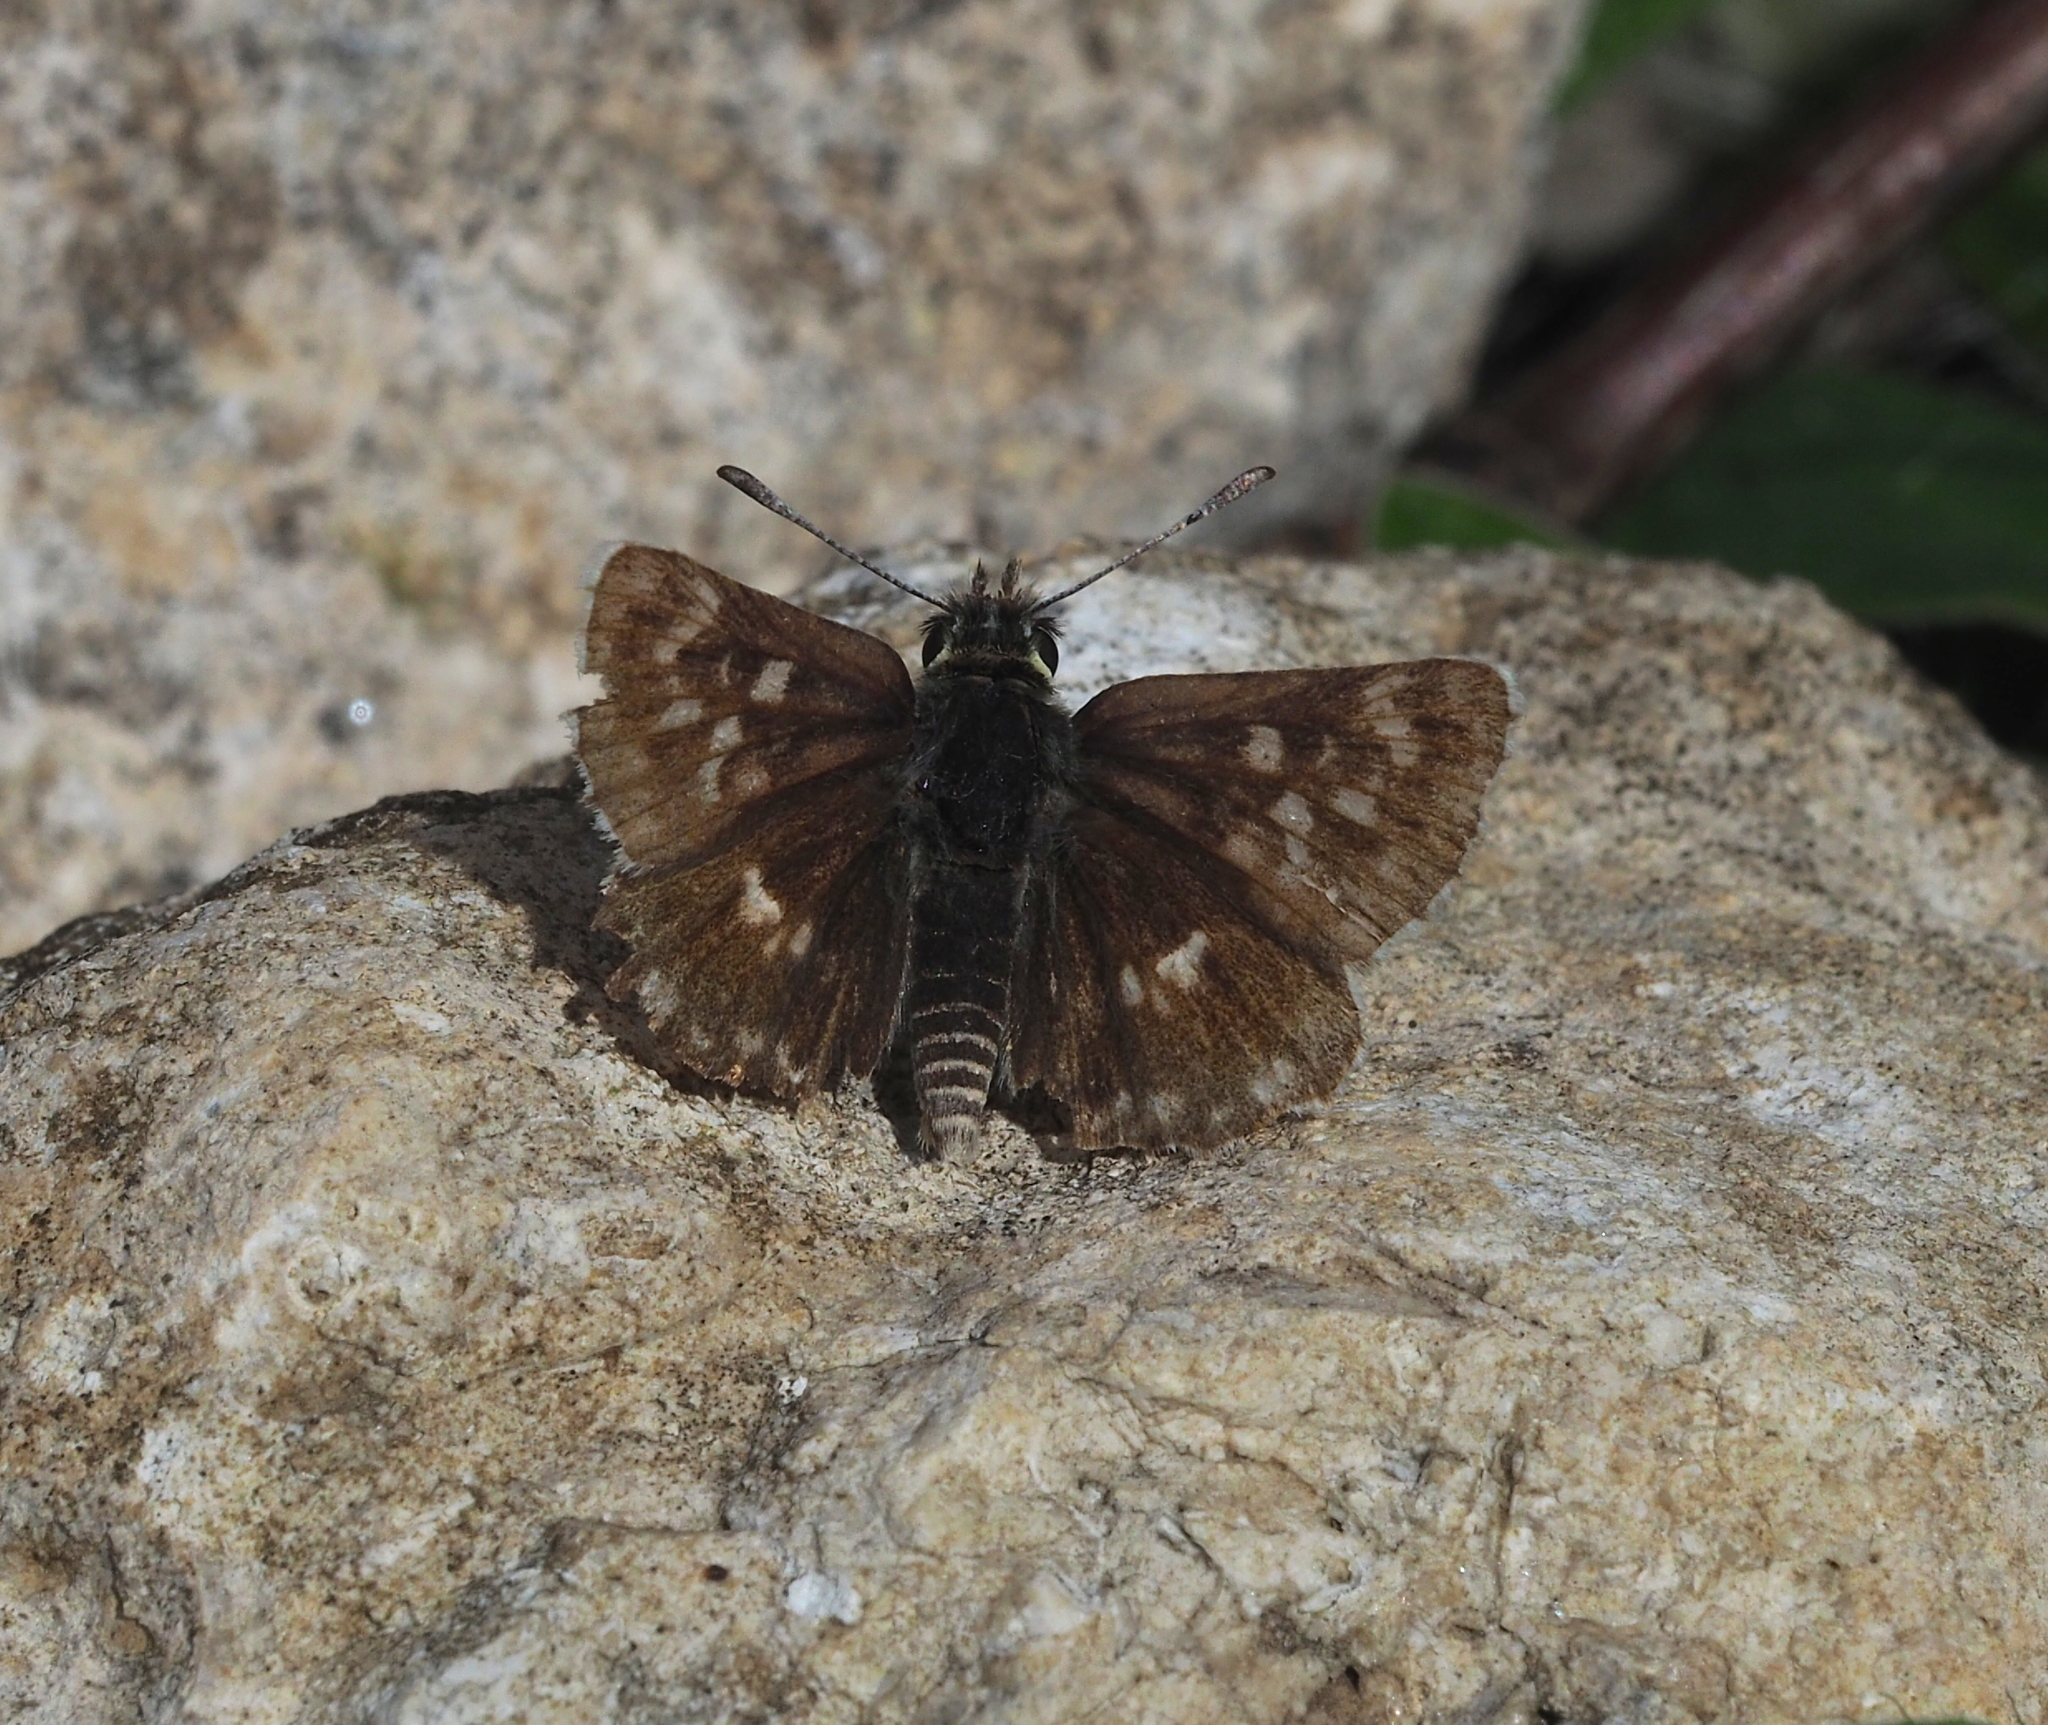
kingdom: Animalia
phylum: Arthropoda
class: Insecta
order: Lepidoptera
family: Hesperiidae
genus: Spialia
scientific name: Spialia sertorius
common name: Red underwing skipper
